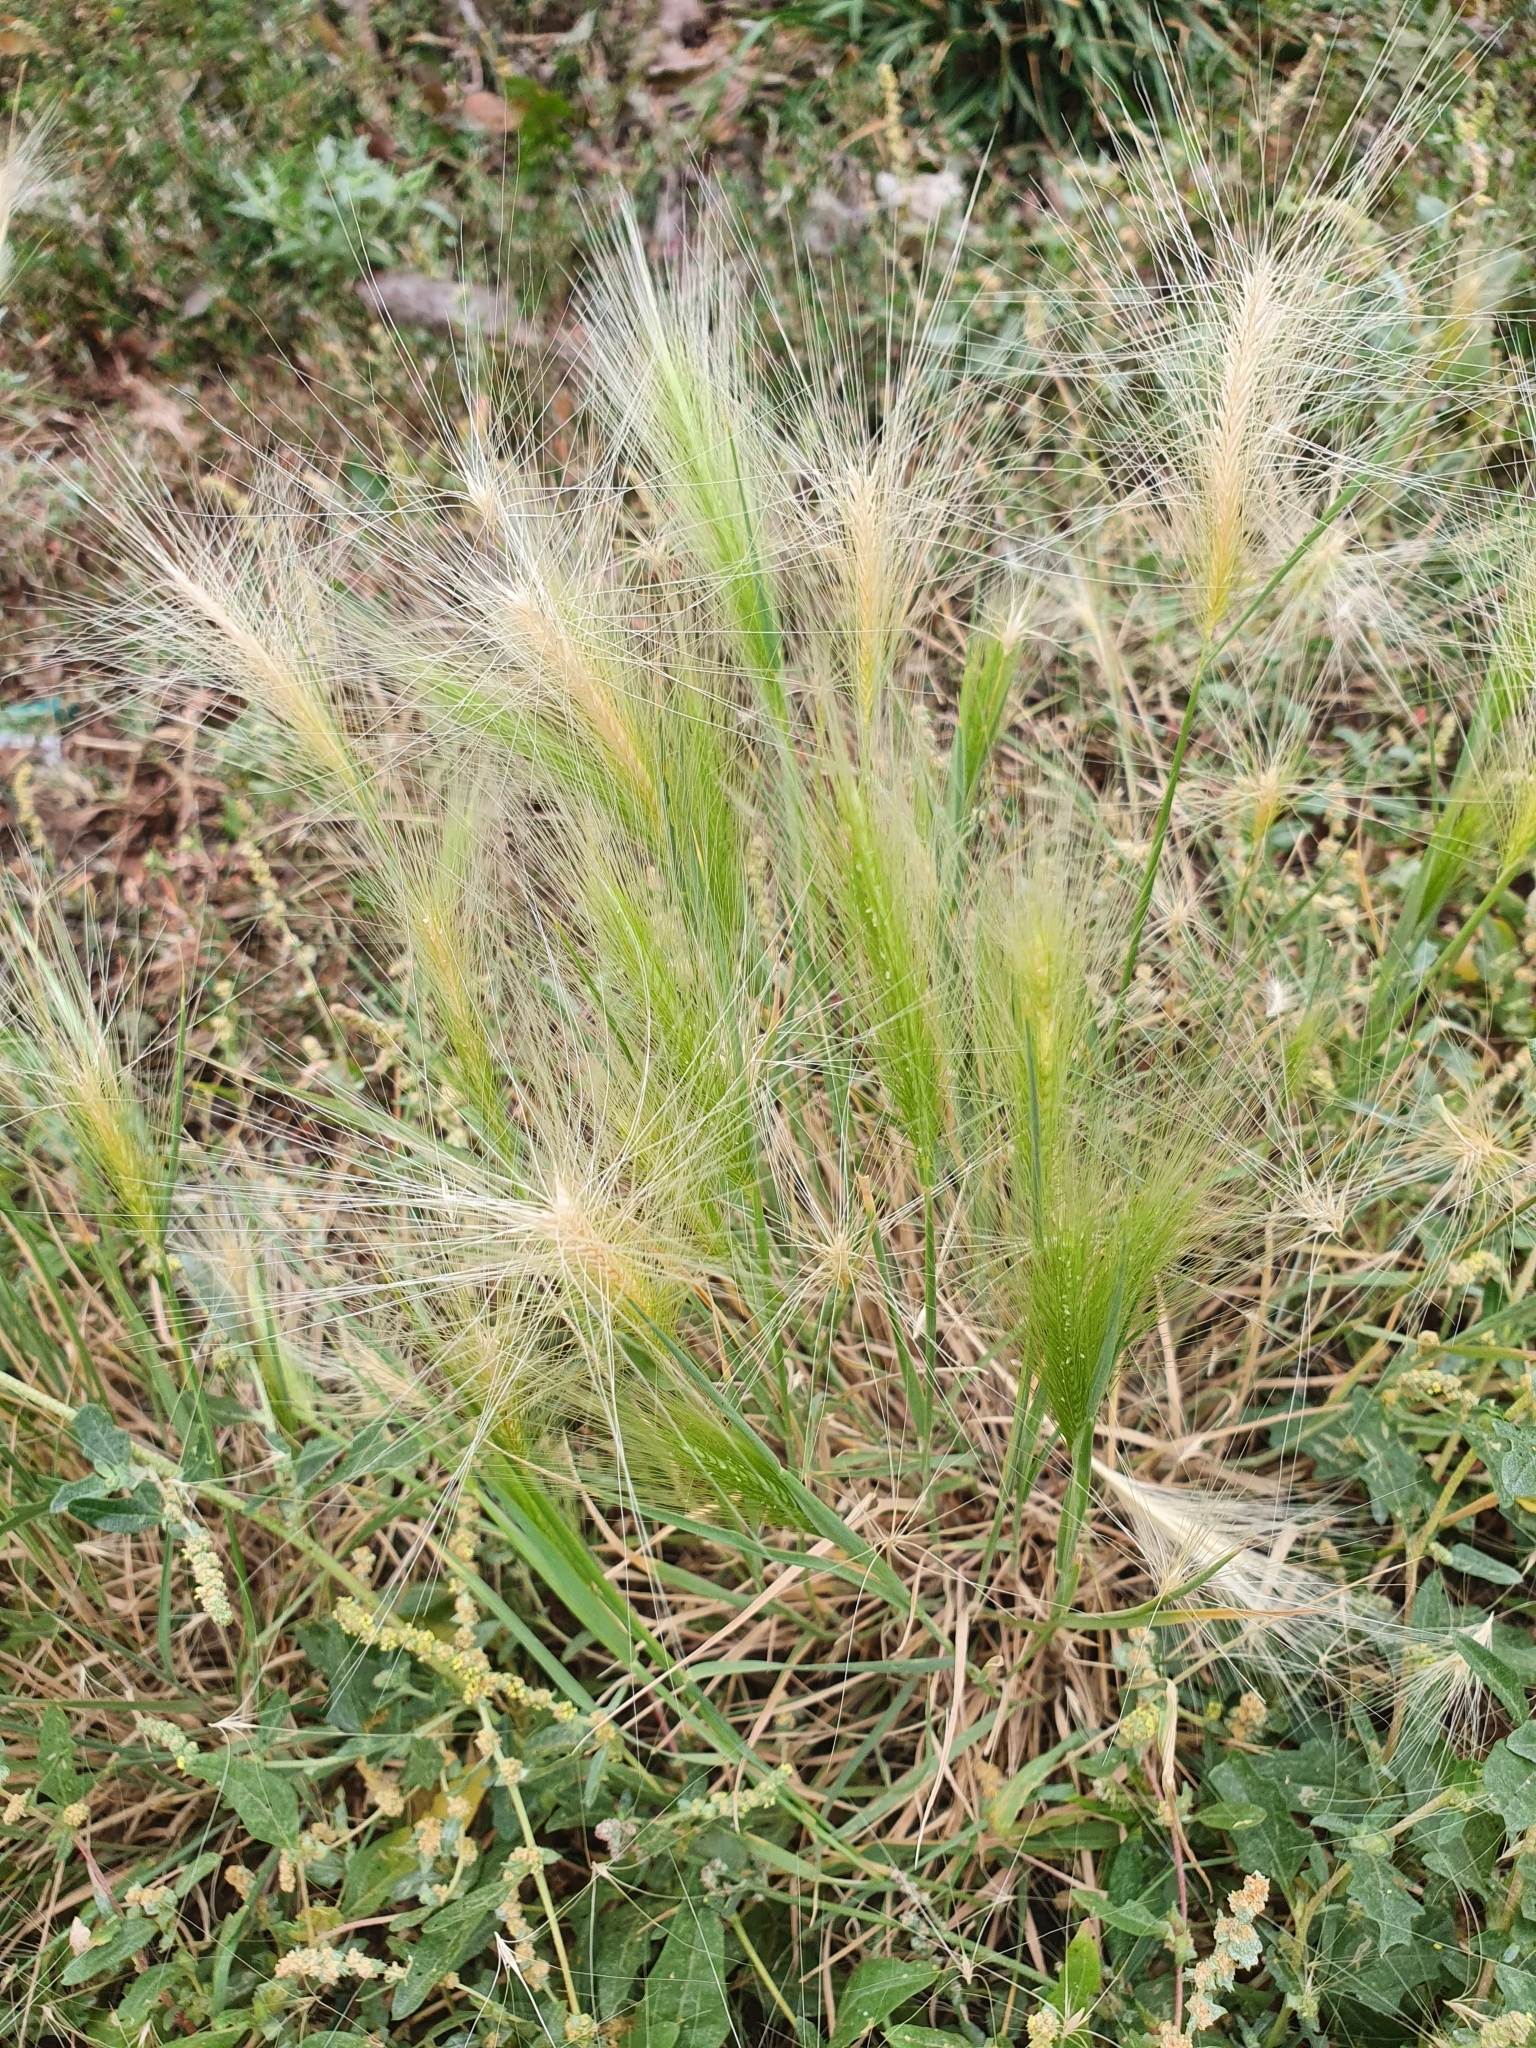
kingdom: Plantae
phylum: Tracheophyta
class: Liliopsida
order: Poales
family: Poaceae
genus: Hordeum
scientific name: Hordeum jubatum
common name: Foxtail barley
